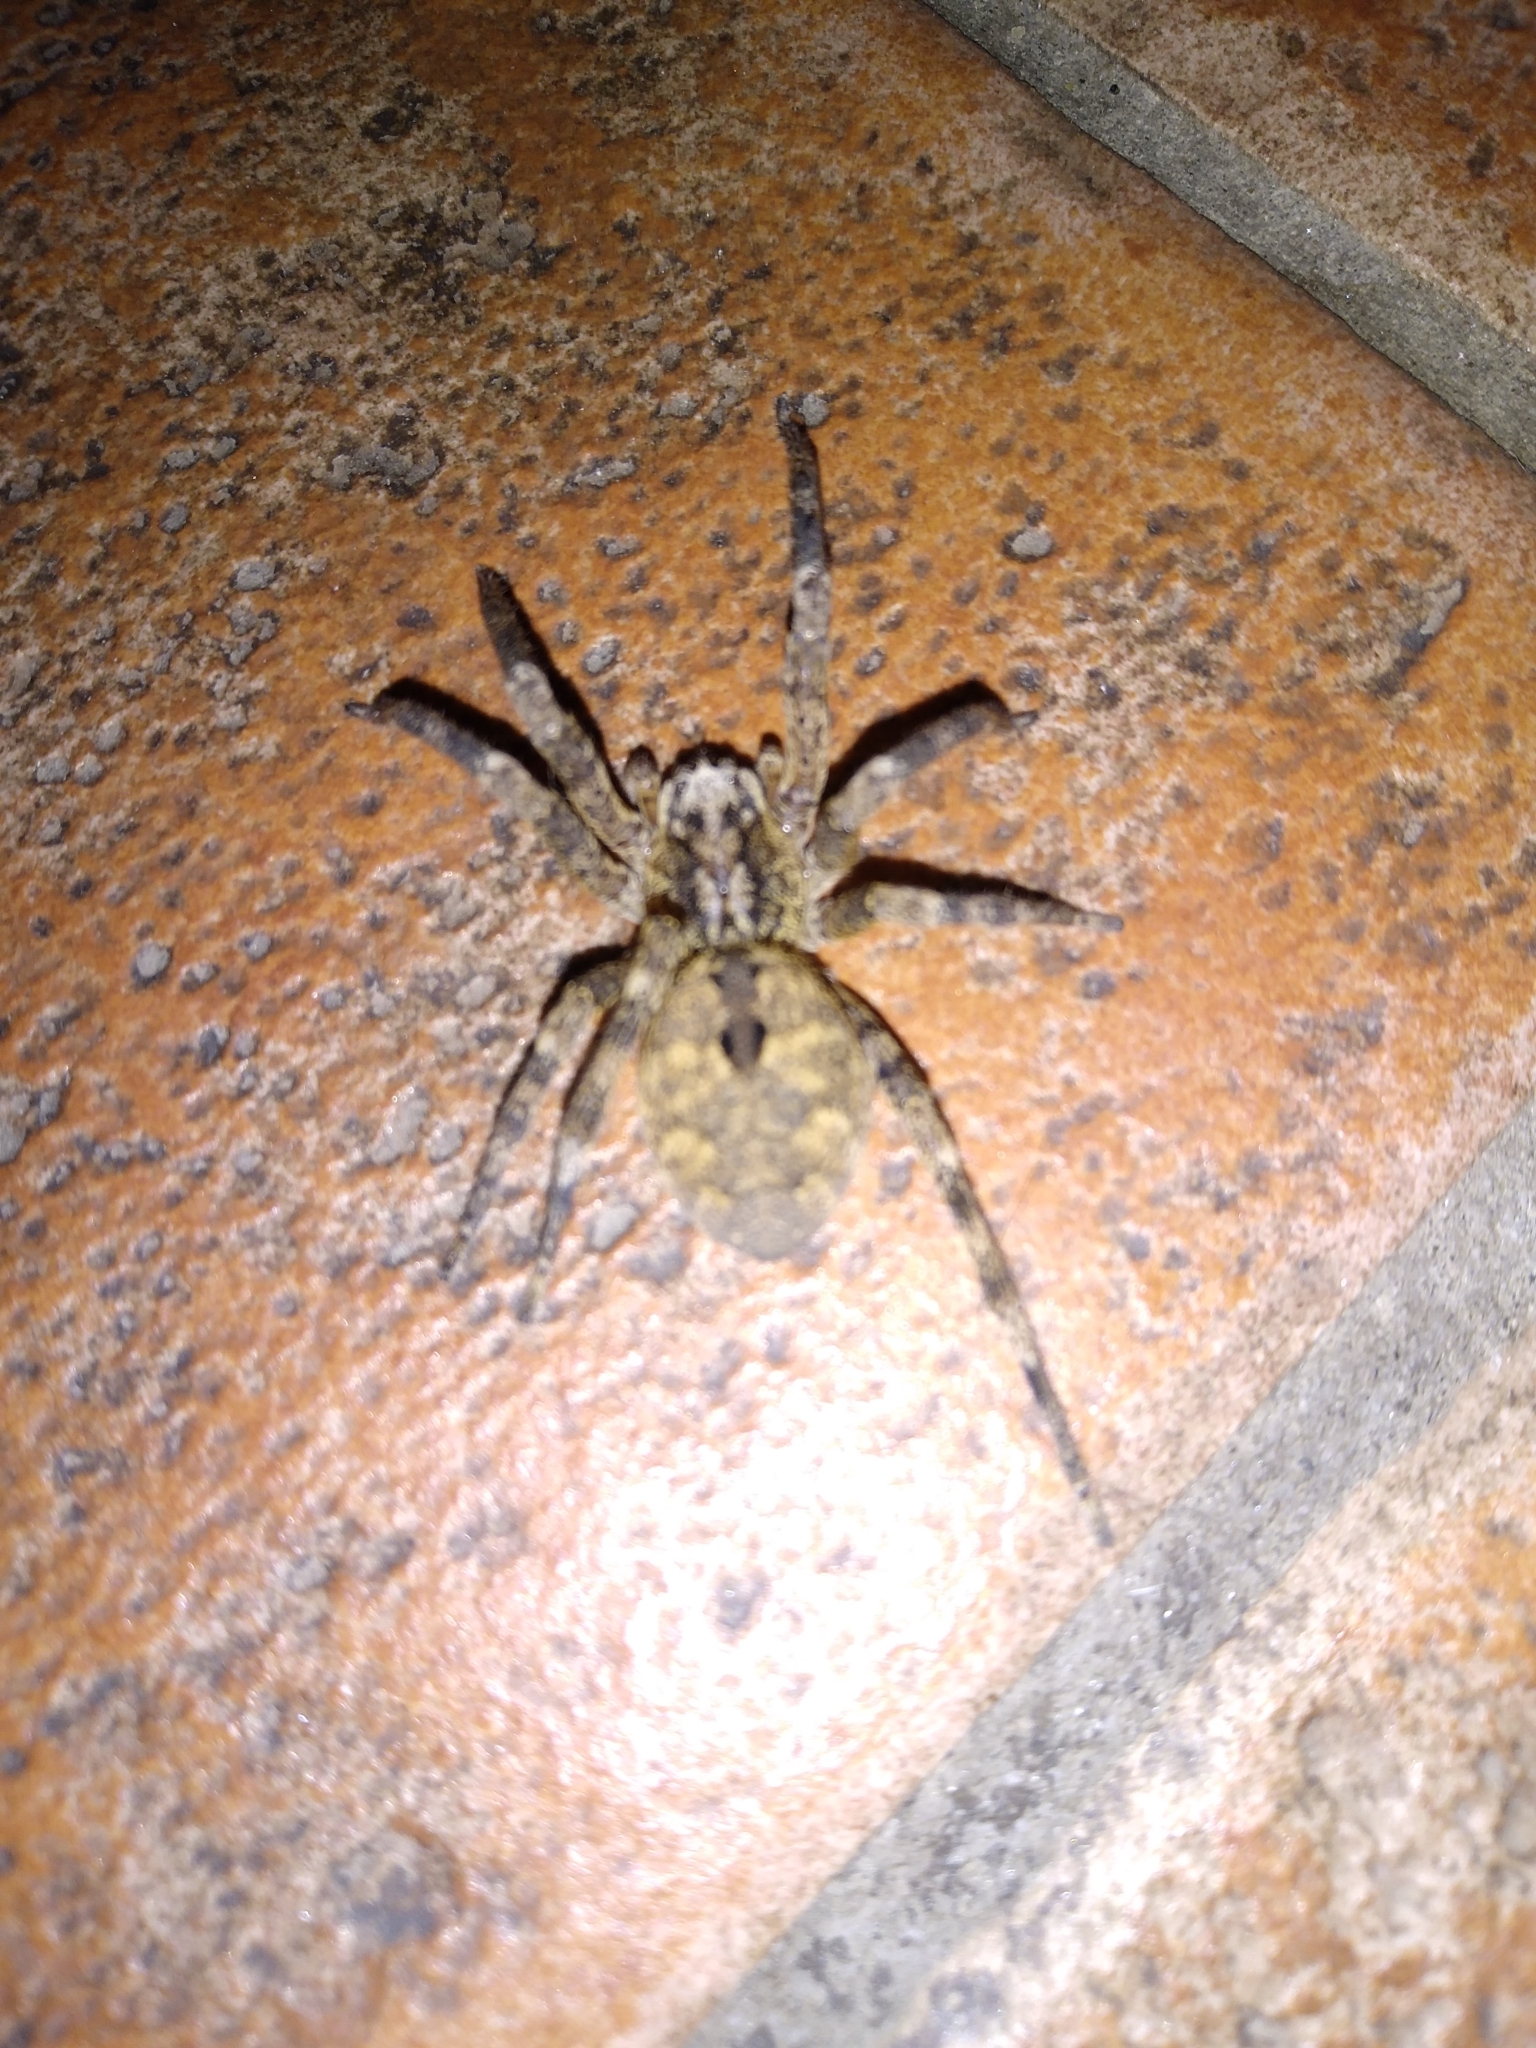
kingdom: Animalia
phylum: Arthropoda
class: Arachnida
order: Araneae
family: Zoropsidae
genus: Zoropsis
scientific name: Zoropsis spinimana
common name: Zoropsid spider
